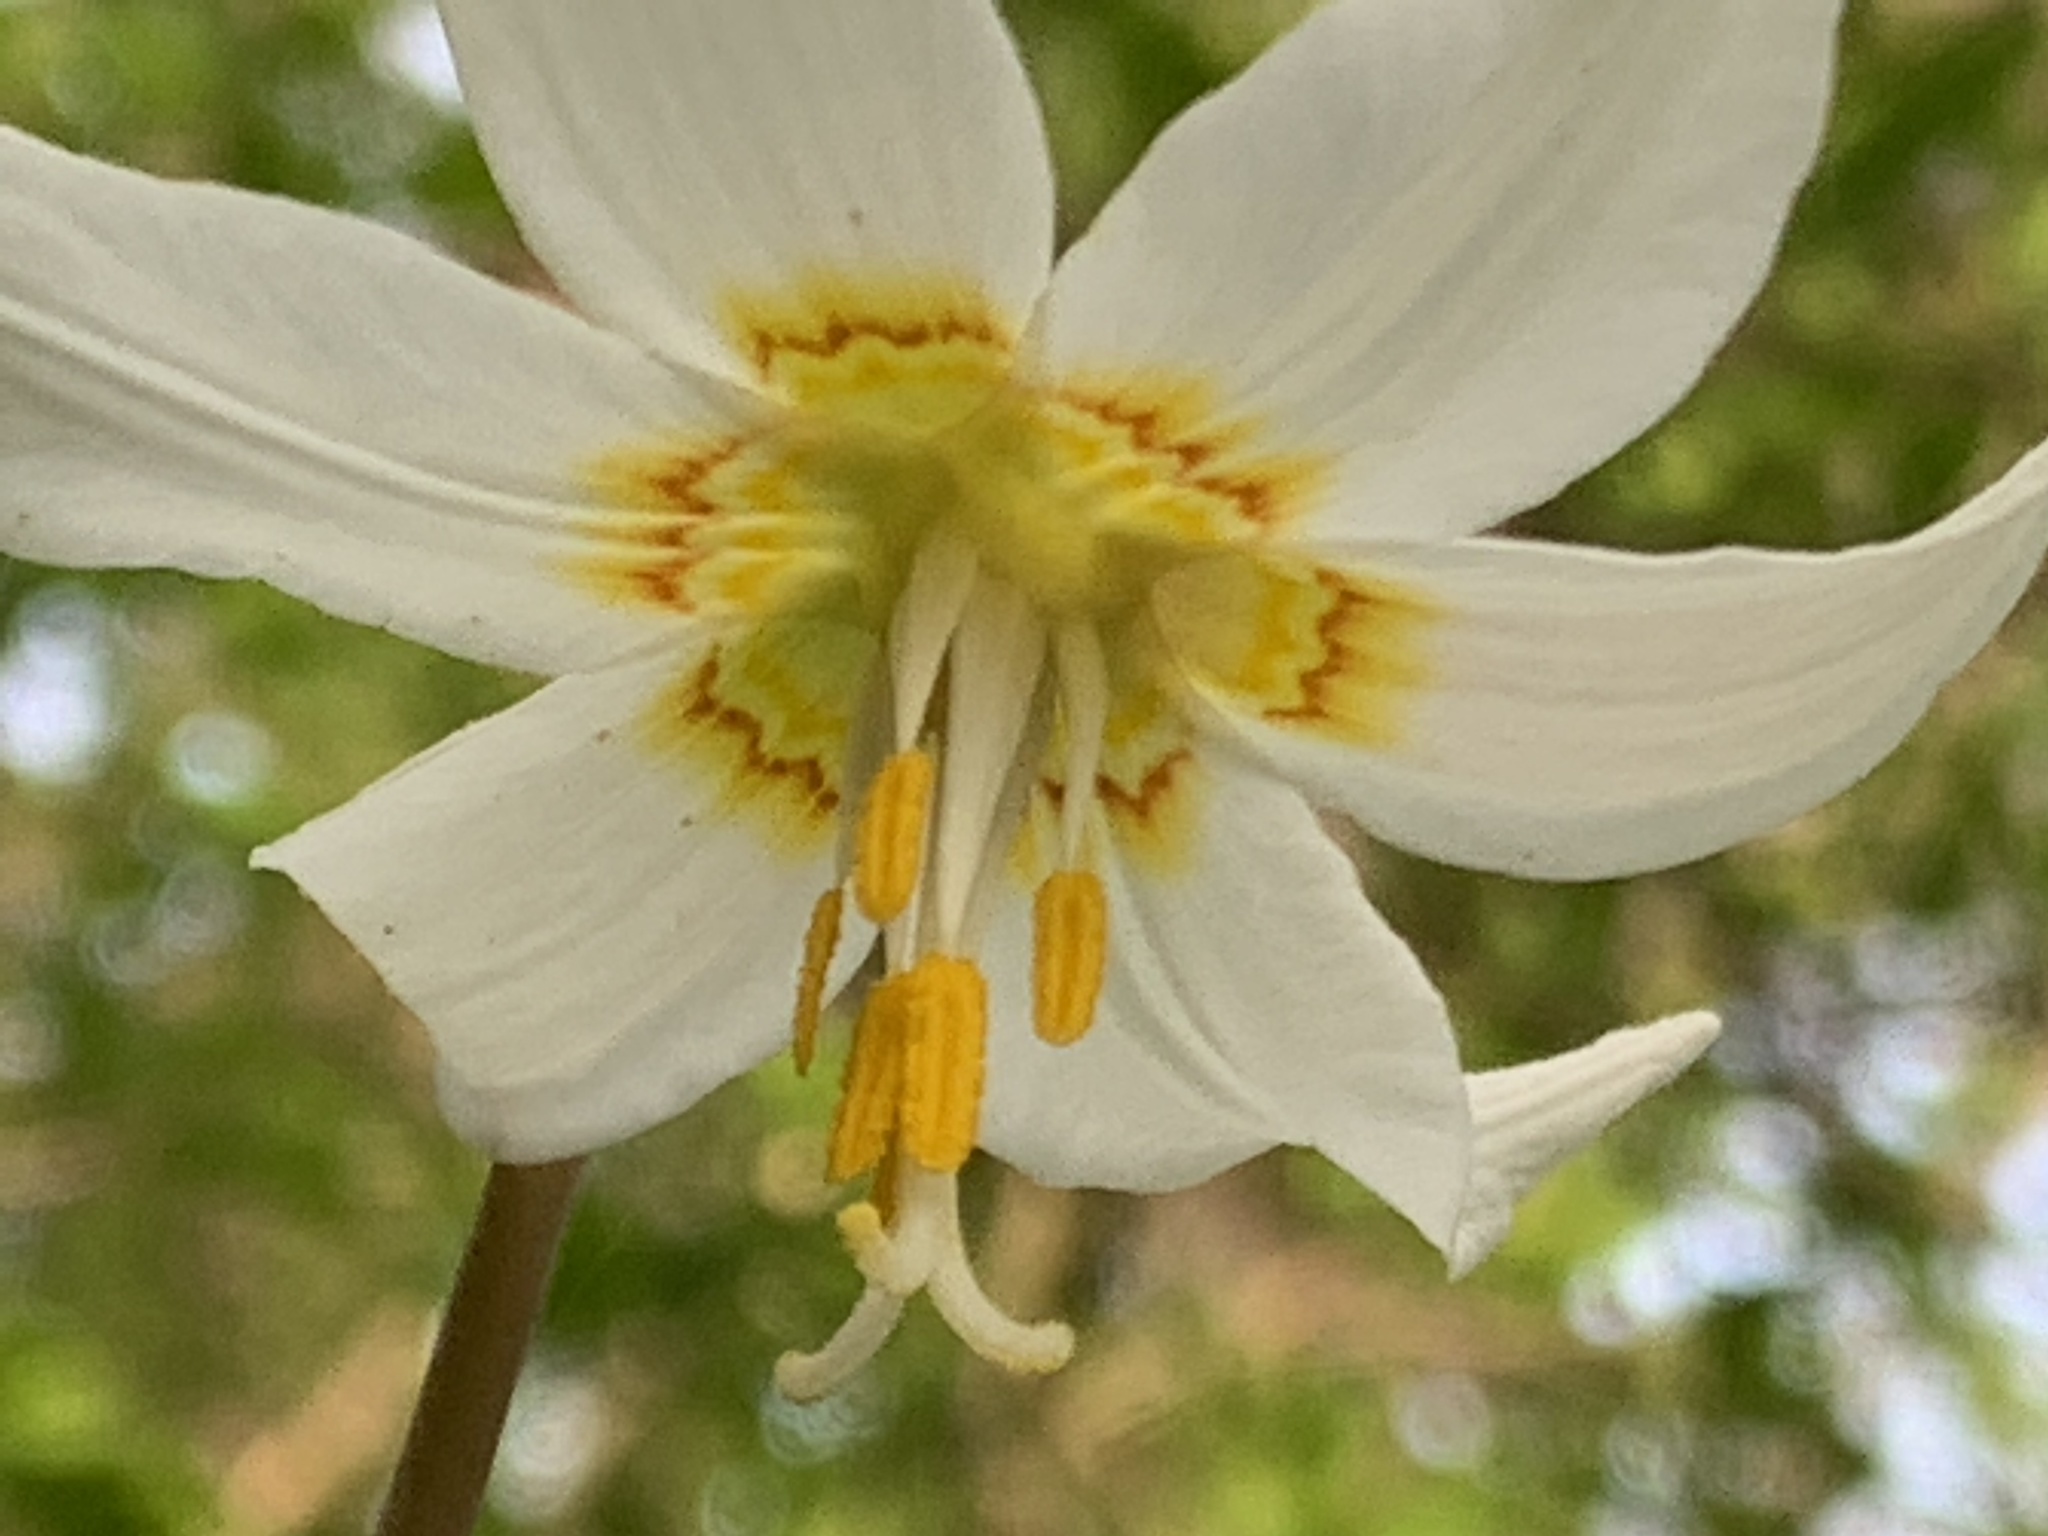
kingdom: Plantae
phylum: Tracheophyta
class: Liliopsida
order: Liliales
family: Liliaceae
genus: Erythronium
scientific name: Erythronium oregonum
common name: Giant adder's-tongue
